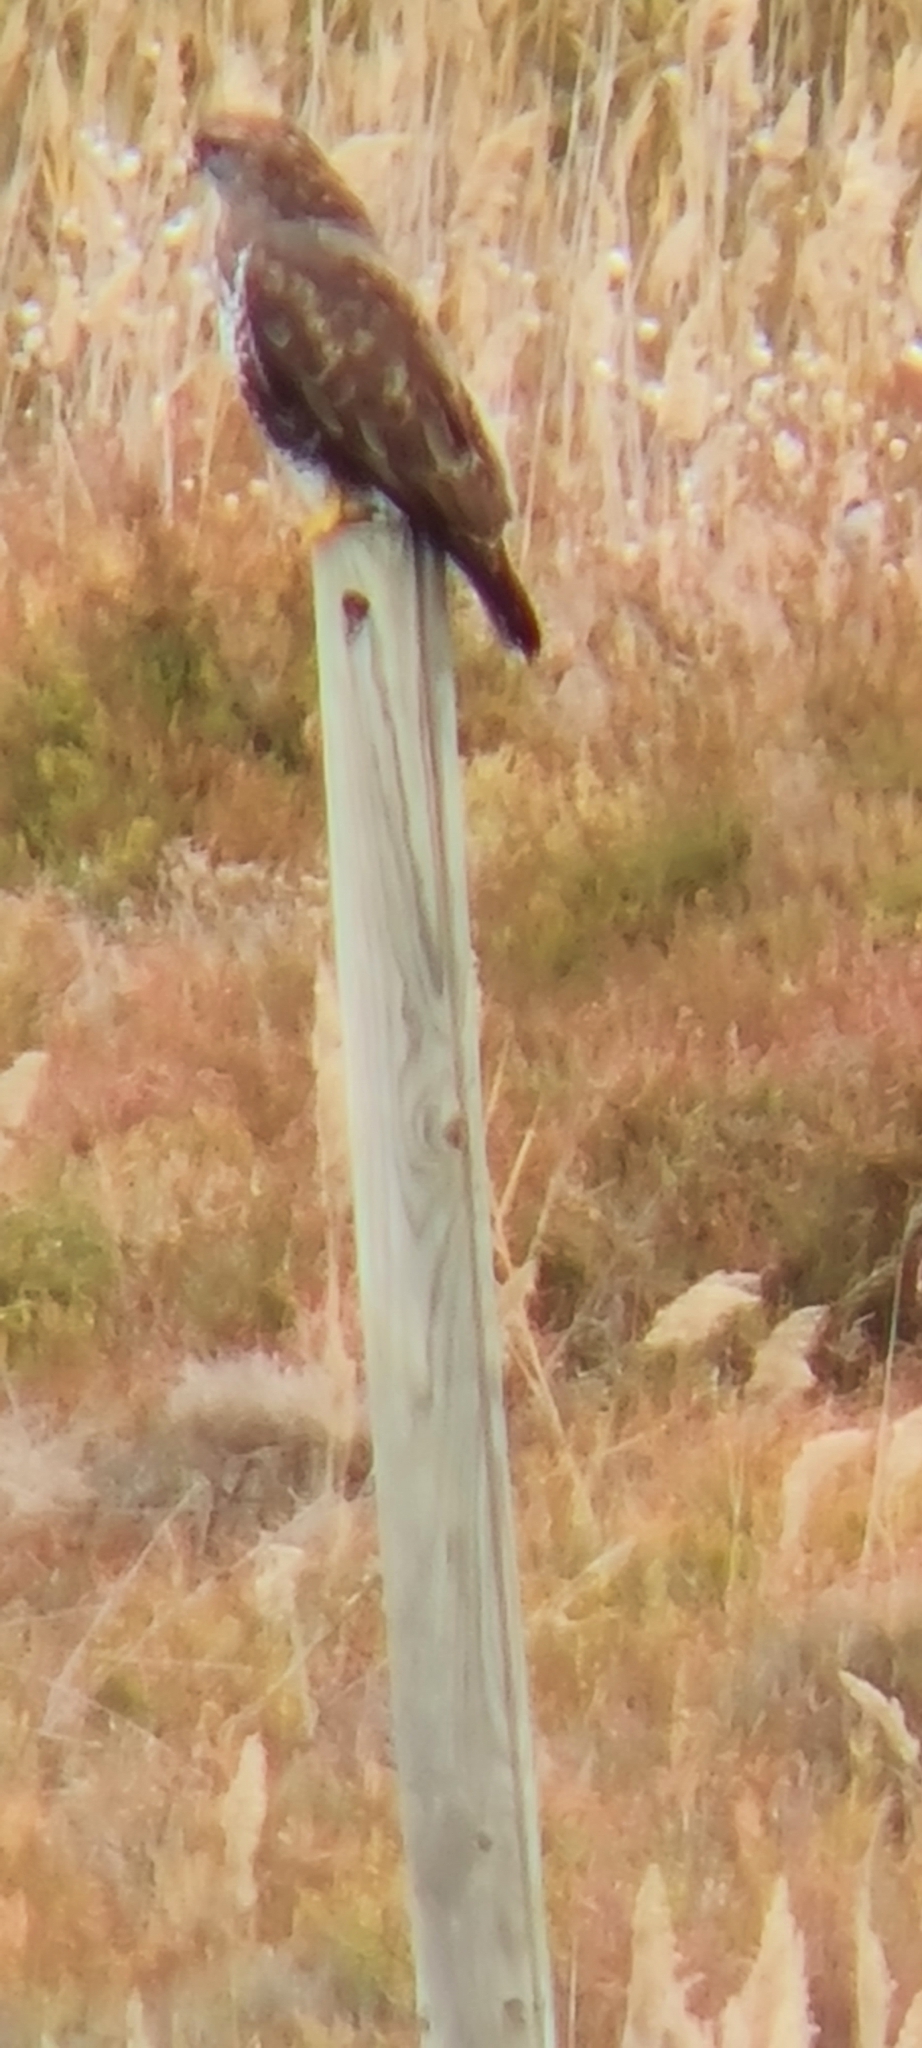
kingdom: Animalia
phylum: Chordata
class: Aves
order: Accipitriformes
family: Accipitridae
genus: Buteo
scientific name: Buteo buteo
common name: Common buzzard
